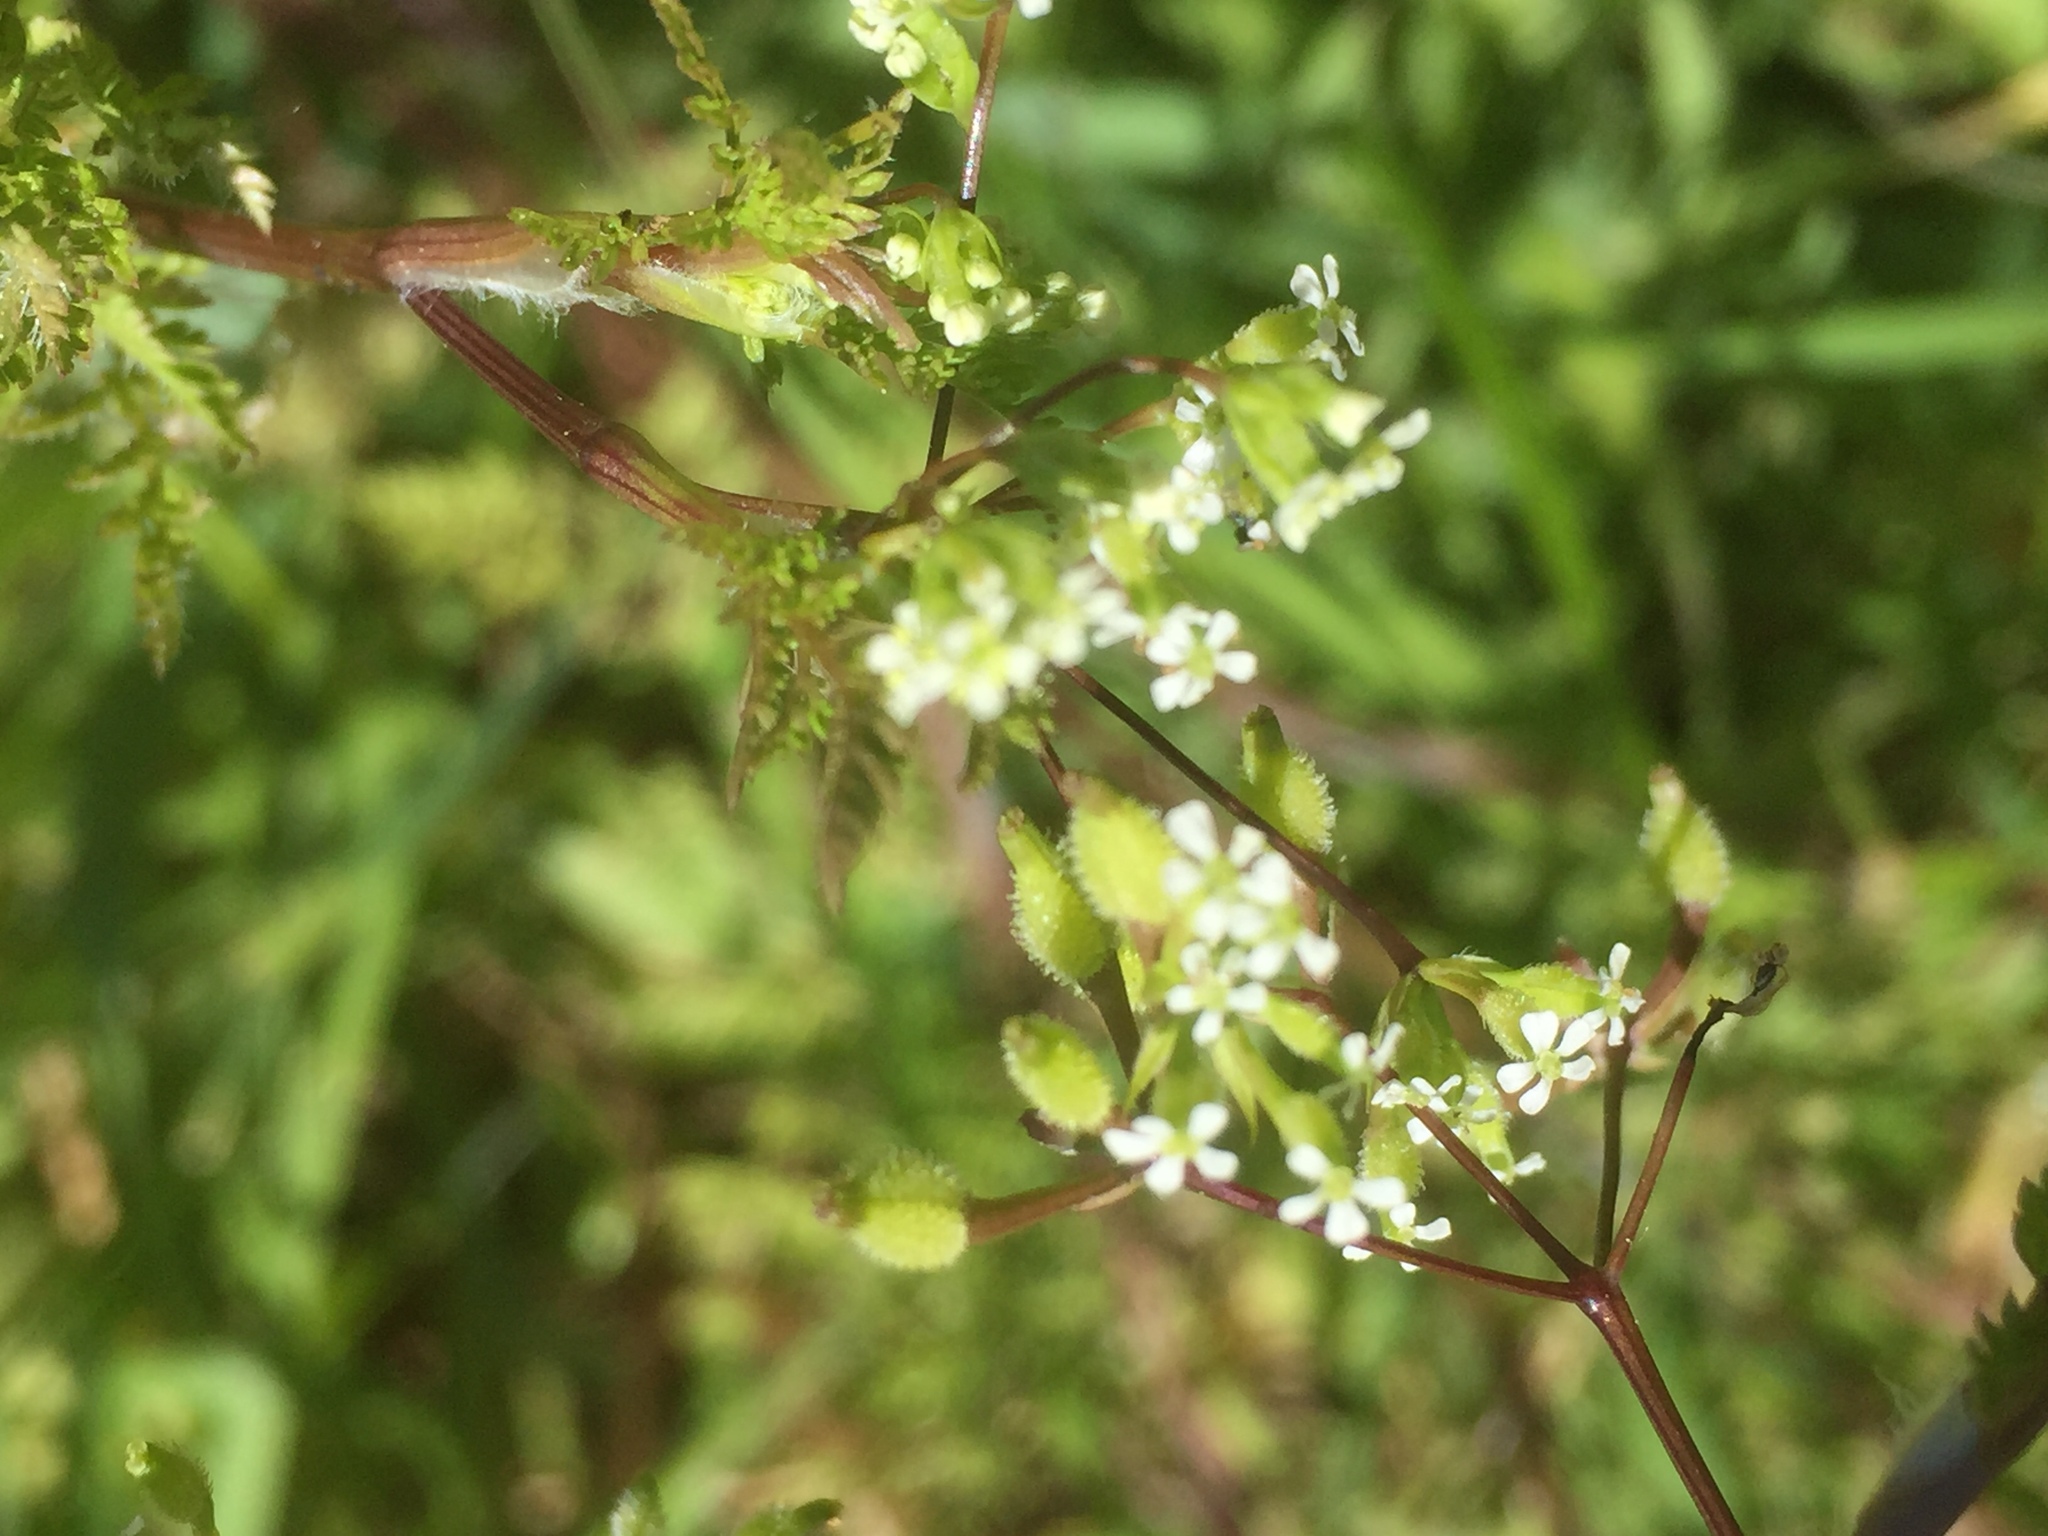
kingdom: Plantae
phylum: Tracheophyta
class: Magnoliopsida
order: Apiales
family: Apiaceae
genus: Anthriscus
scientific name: Anthriscus caucalis
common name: Bur chervil
